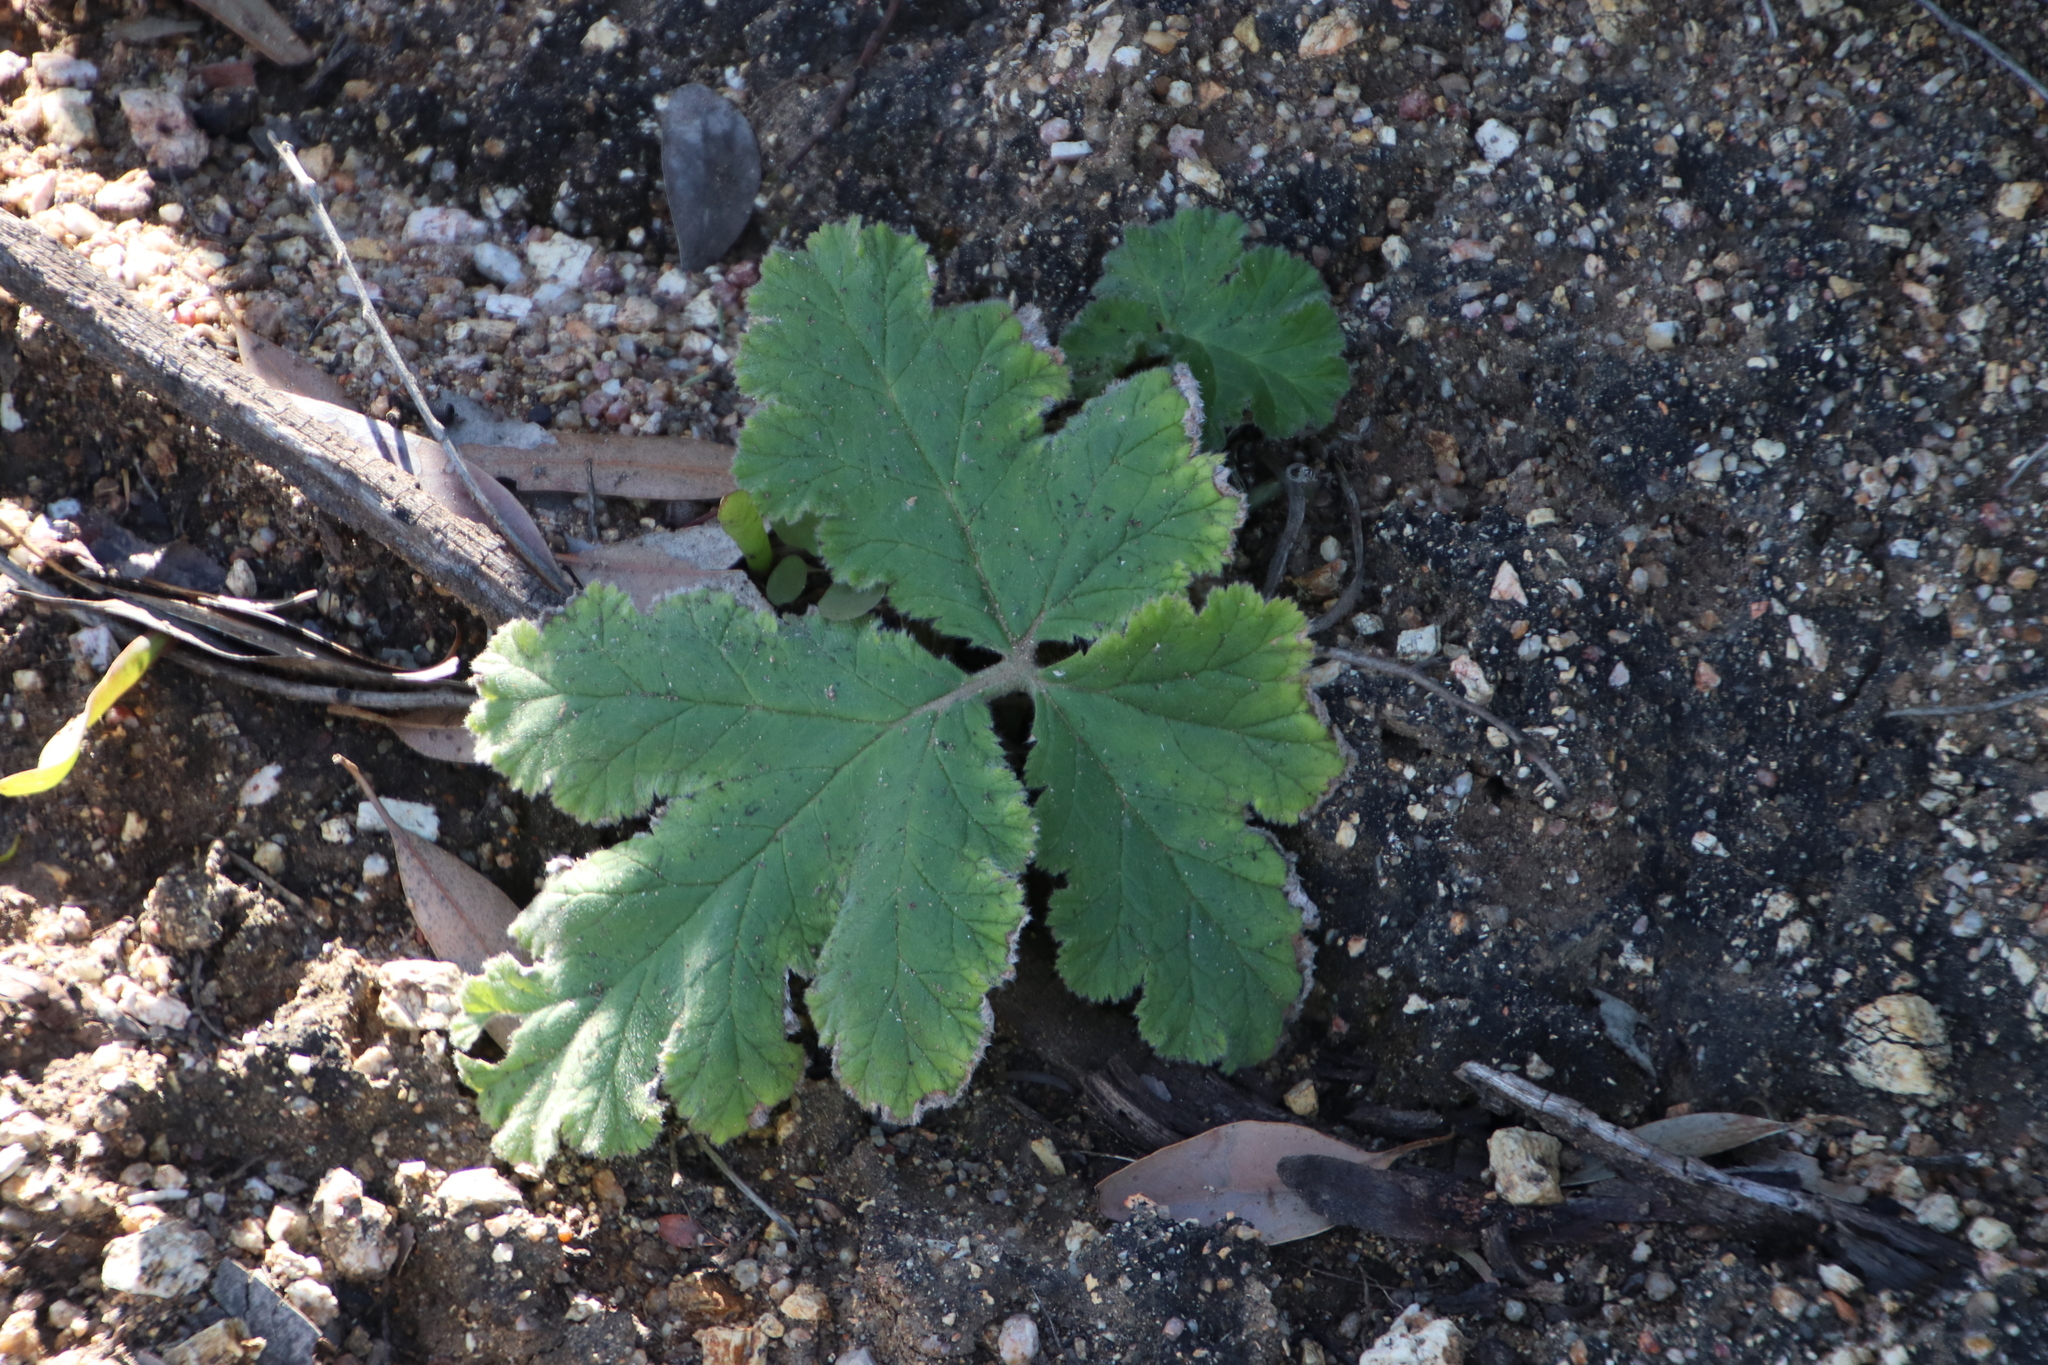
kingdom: Plantae
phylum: Tracheophyta
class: Magnoliopsida
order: Geraniales
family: Geraniaceae
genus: Pelargonium
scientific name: Pelargonium lobatum
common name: Vine-leaf pelargonium
